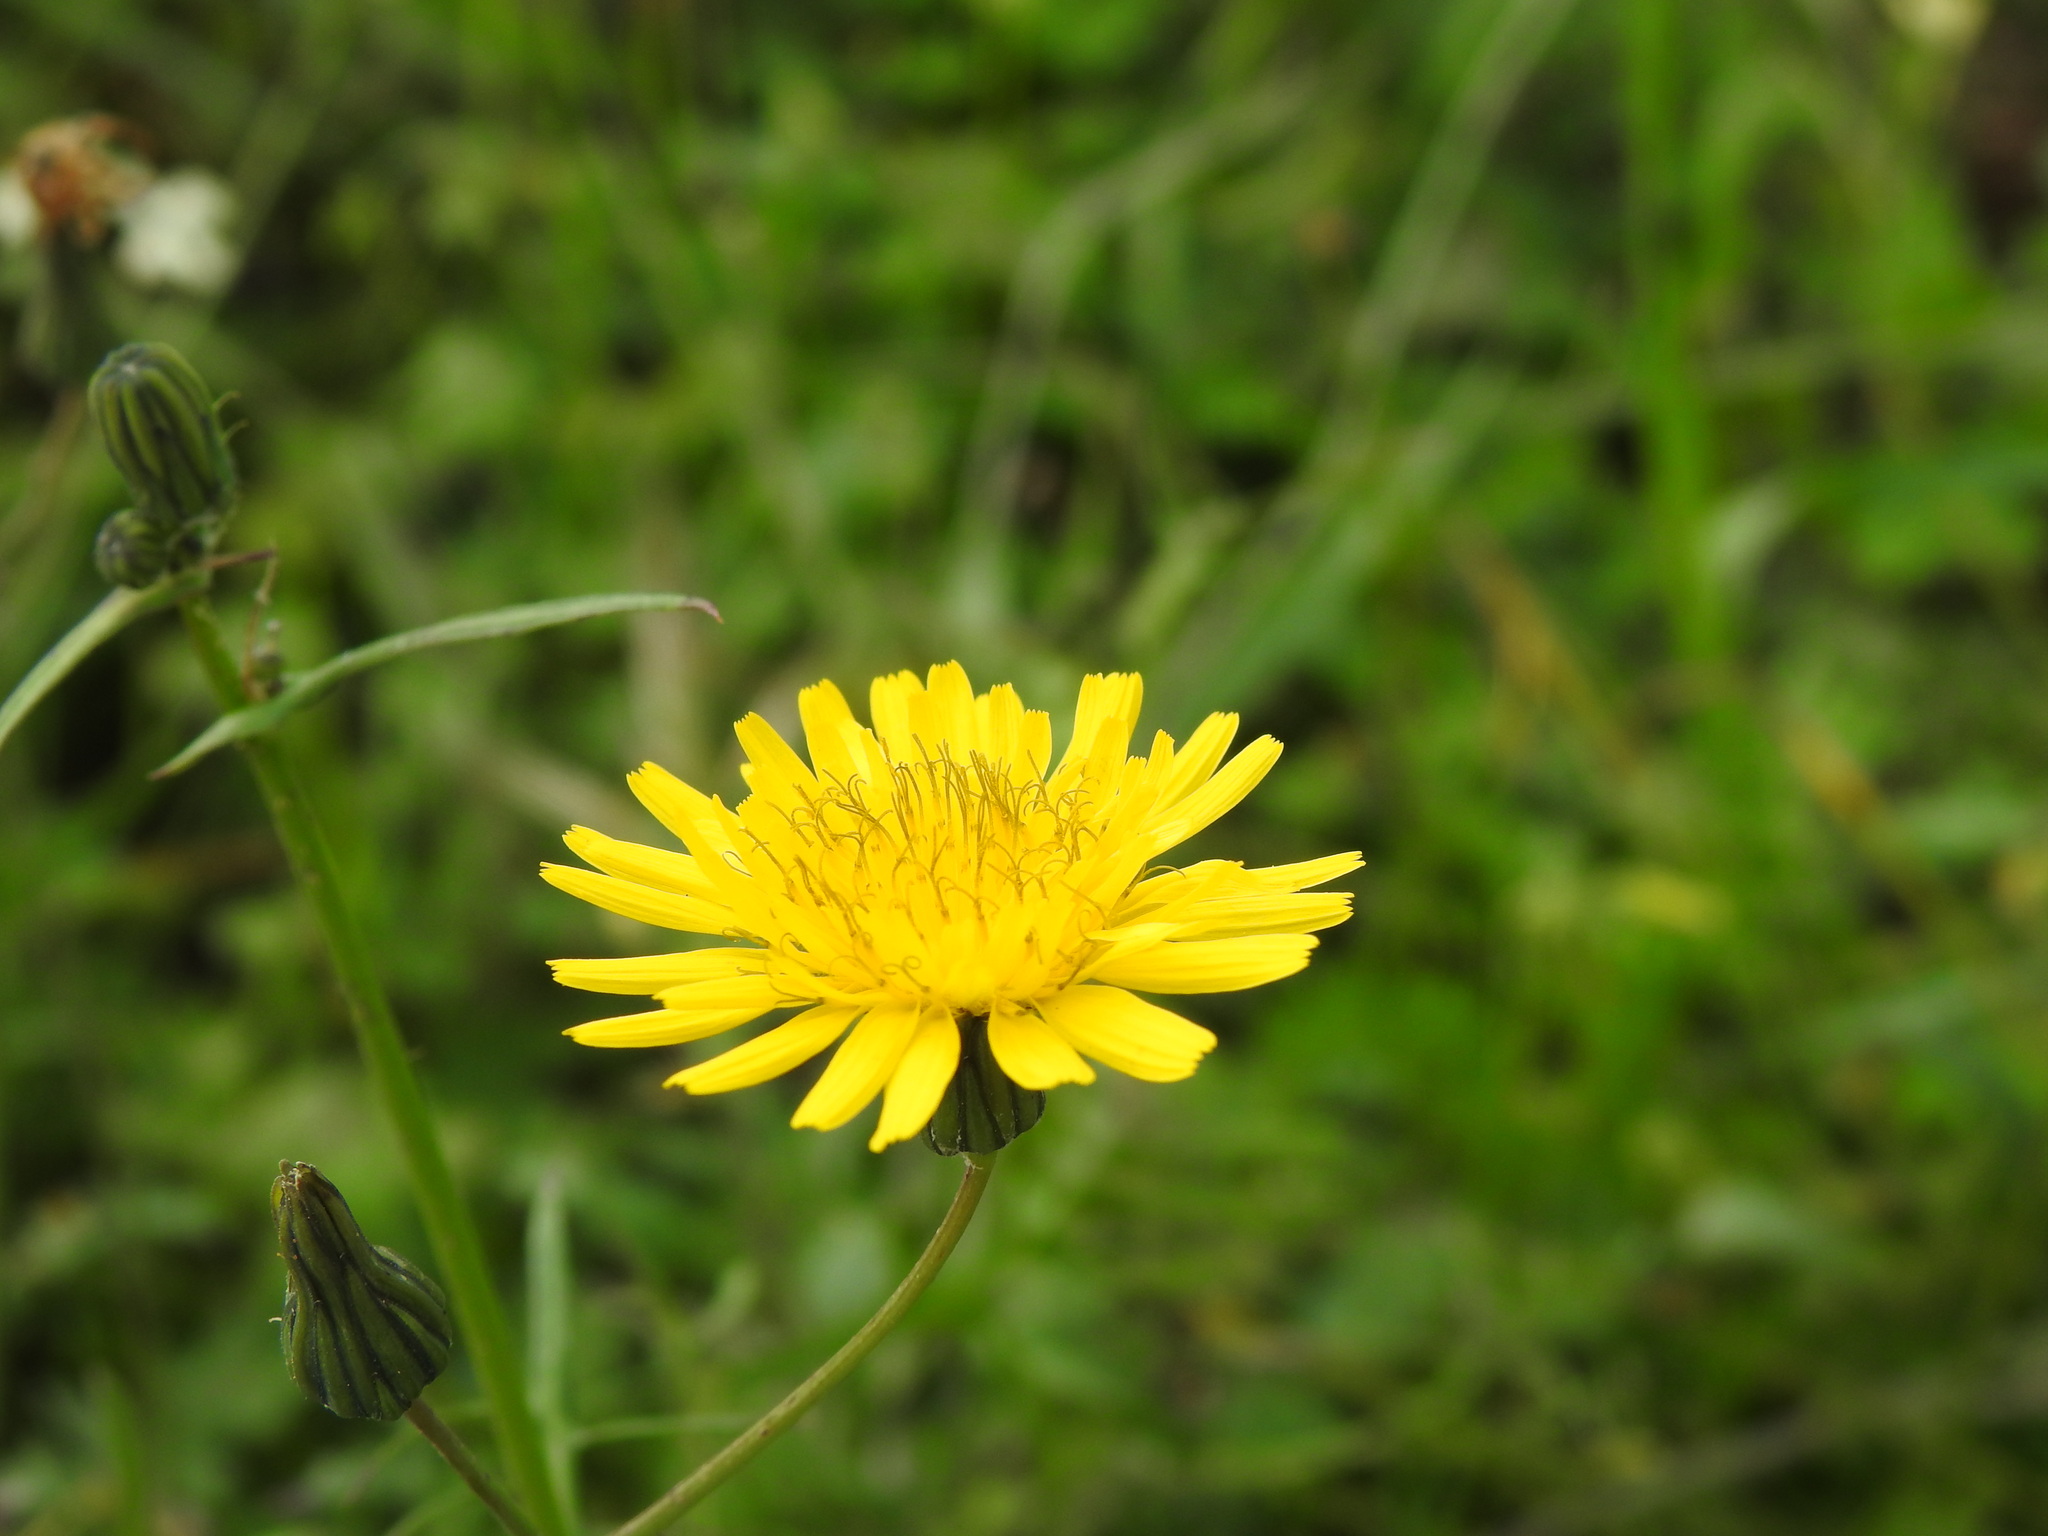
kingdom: Plantae
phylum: Tracheophyta
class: Magnoliopsida
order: Asterales
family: Asteraceae
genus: Sonchus
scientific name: Sonchus tenerrimus
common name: Clammy sowthistle
